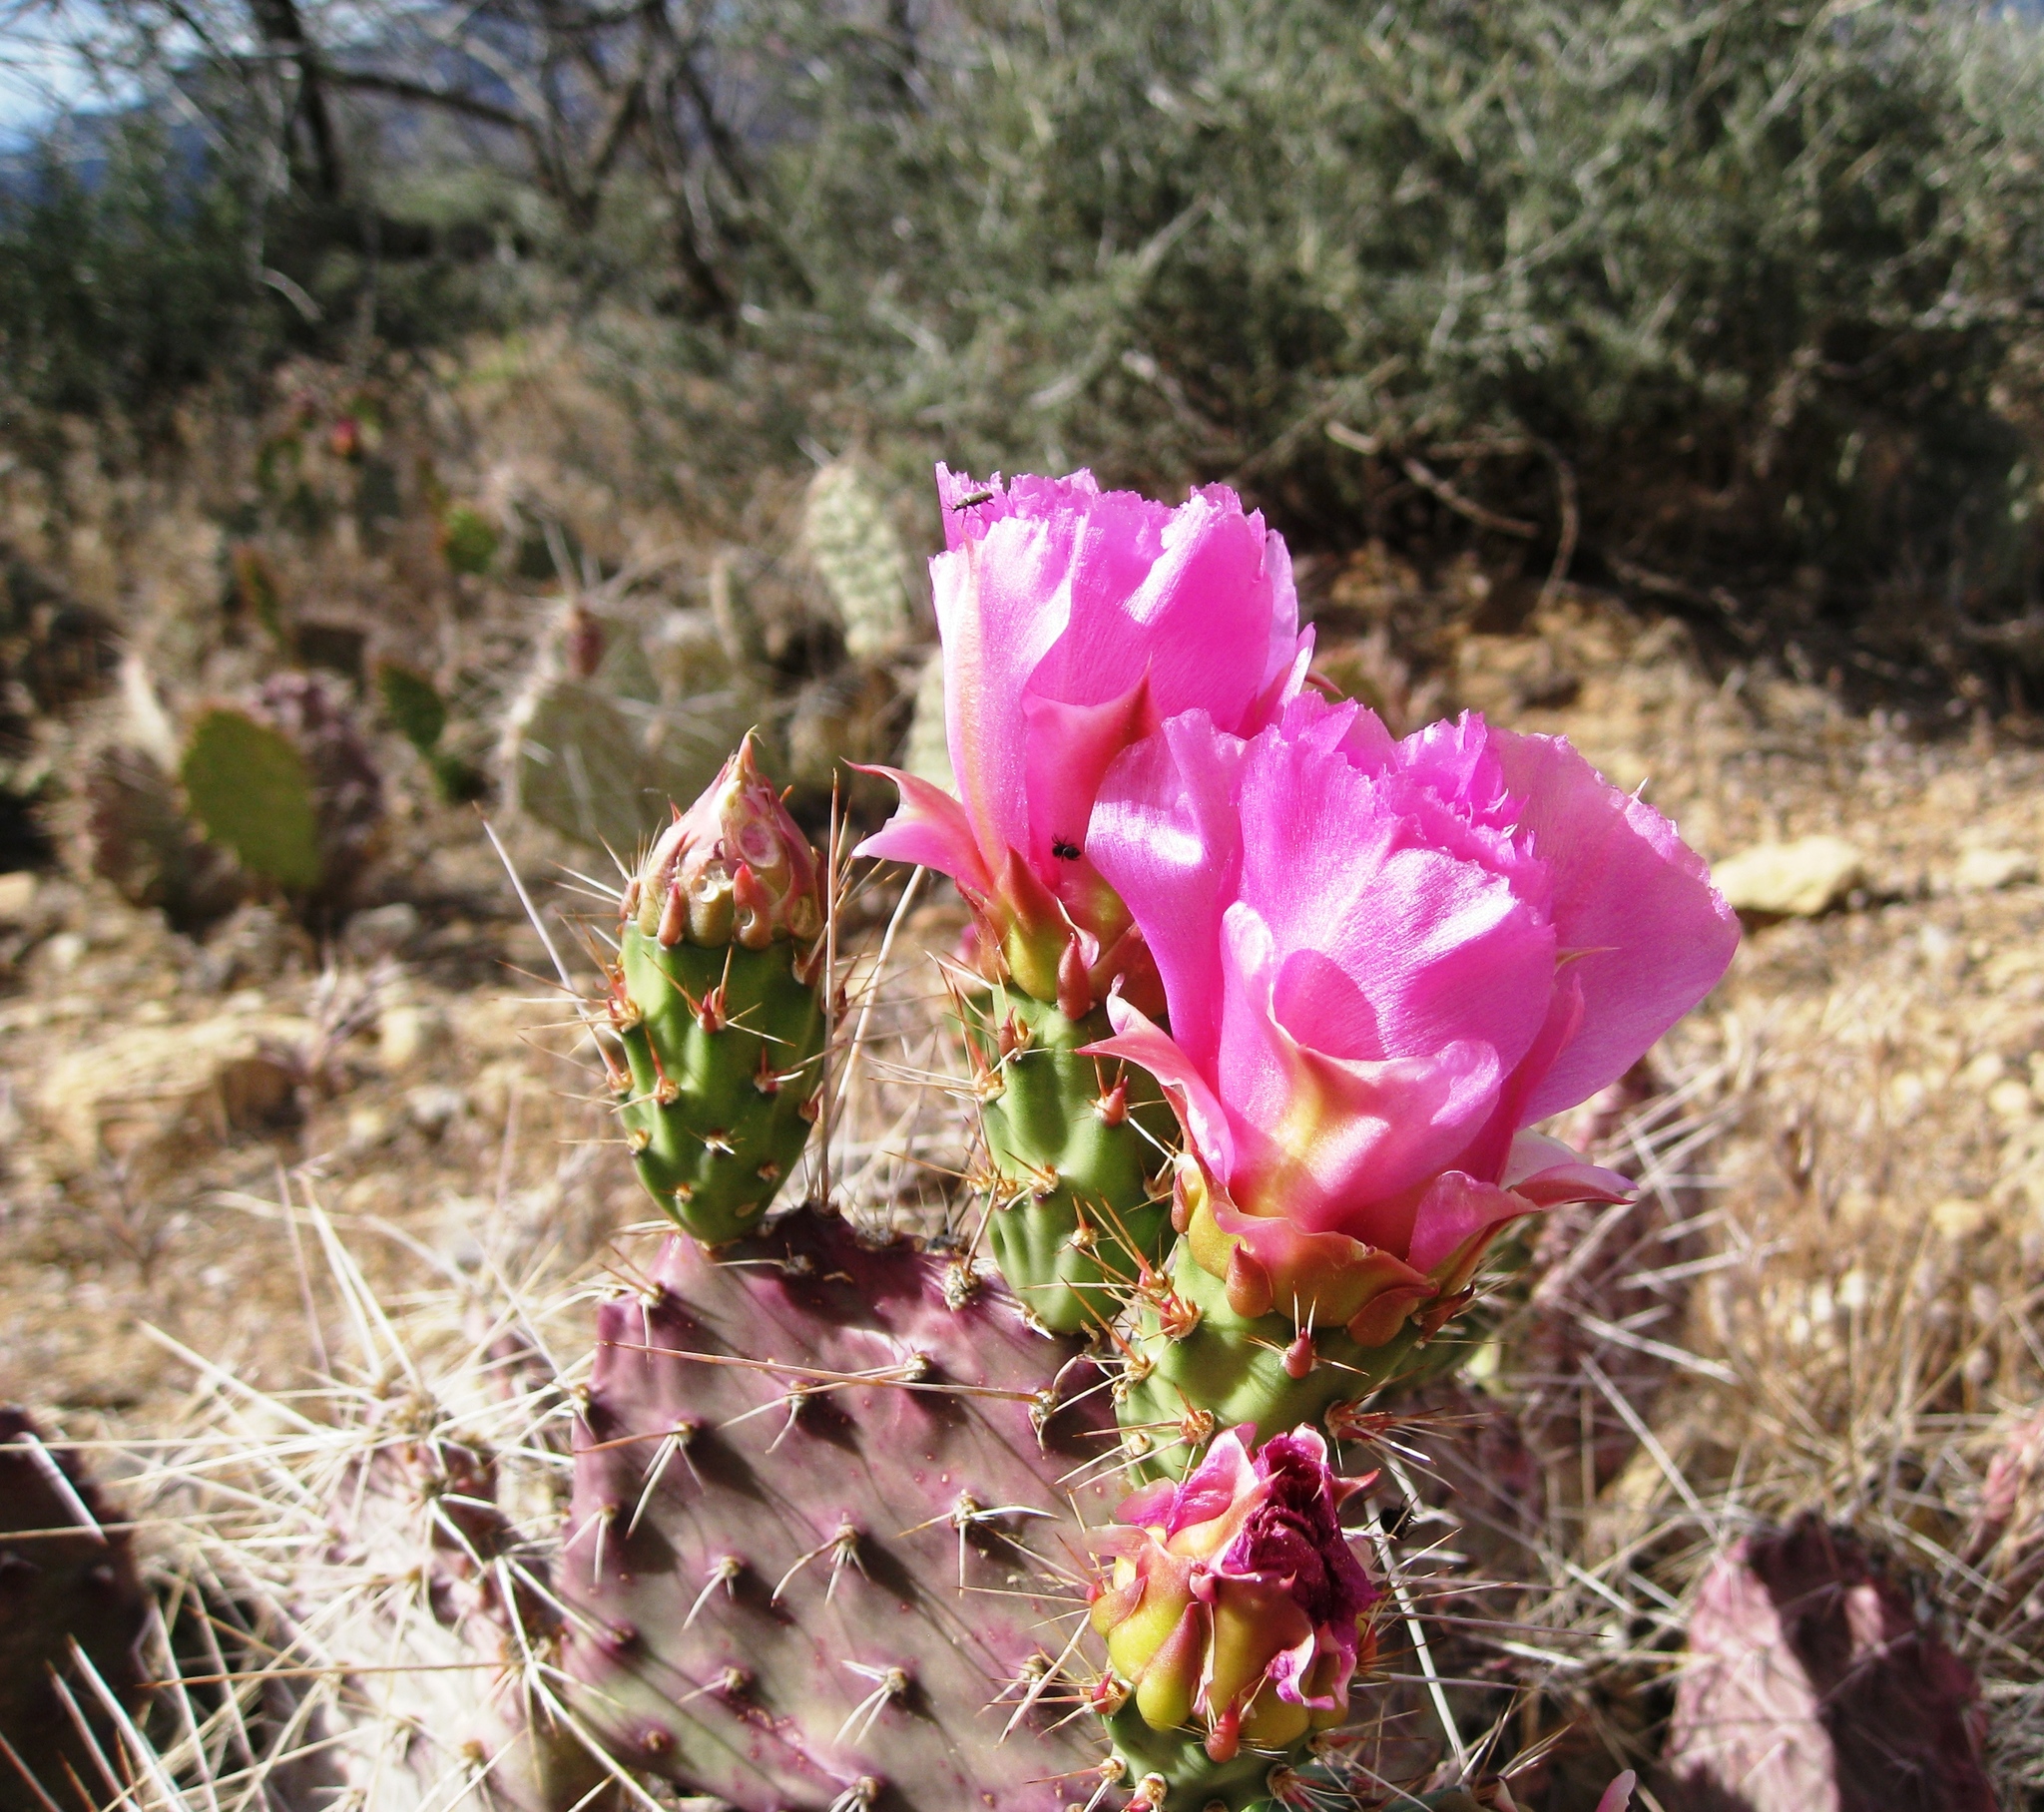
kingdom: Plantae
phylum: Tracheophyta
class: Magnoliopsida
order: Caryophyllales
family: Cactaceae
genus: Opuntia
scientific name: Opuntia polyacantha
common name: Plains prickly-pear
